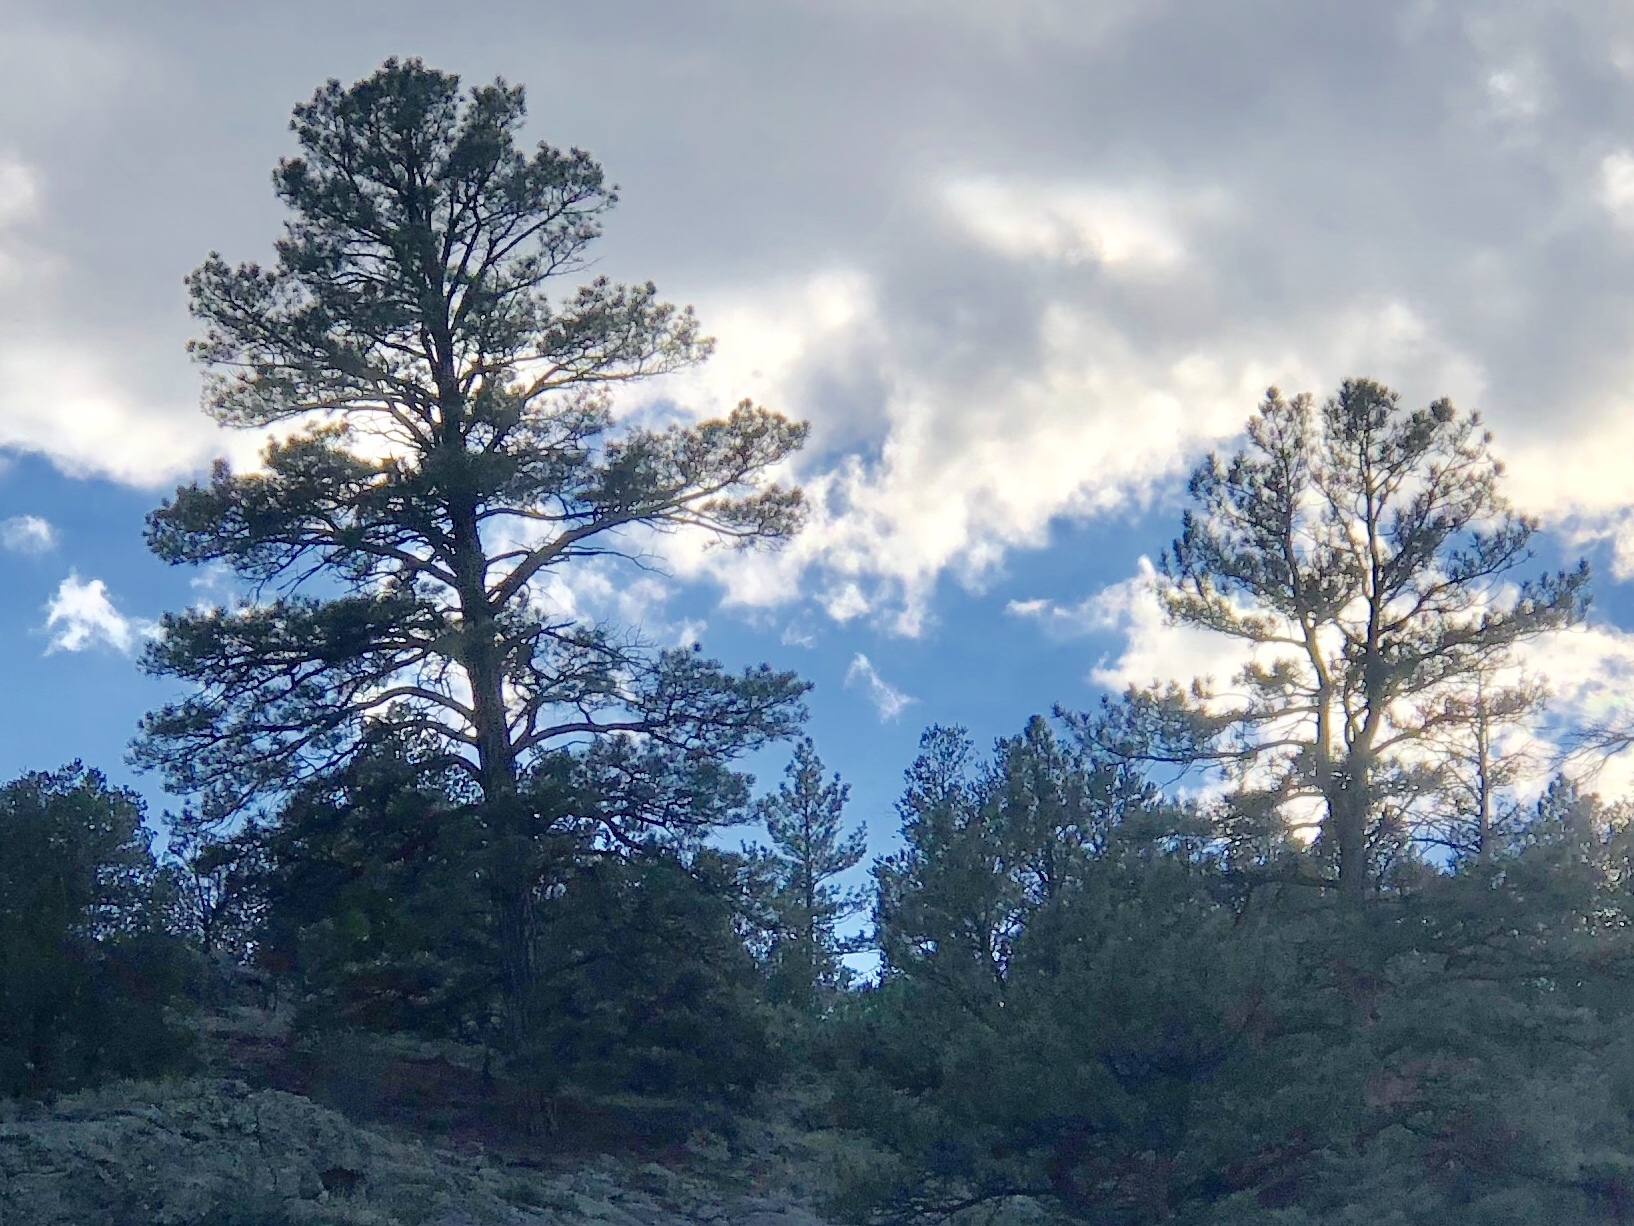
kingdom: Plantae
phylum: Tracheophyta
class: Pinopsida
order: Pinales
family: Pinaceae
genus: Pinus
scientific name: Pinus ponderosa
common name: Western yellow-pine
